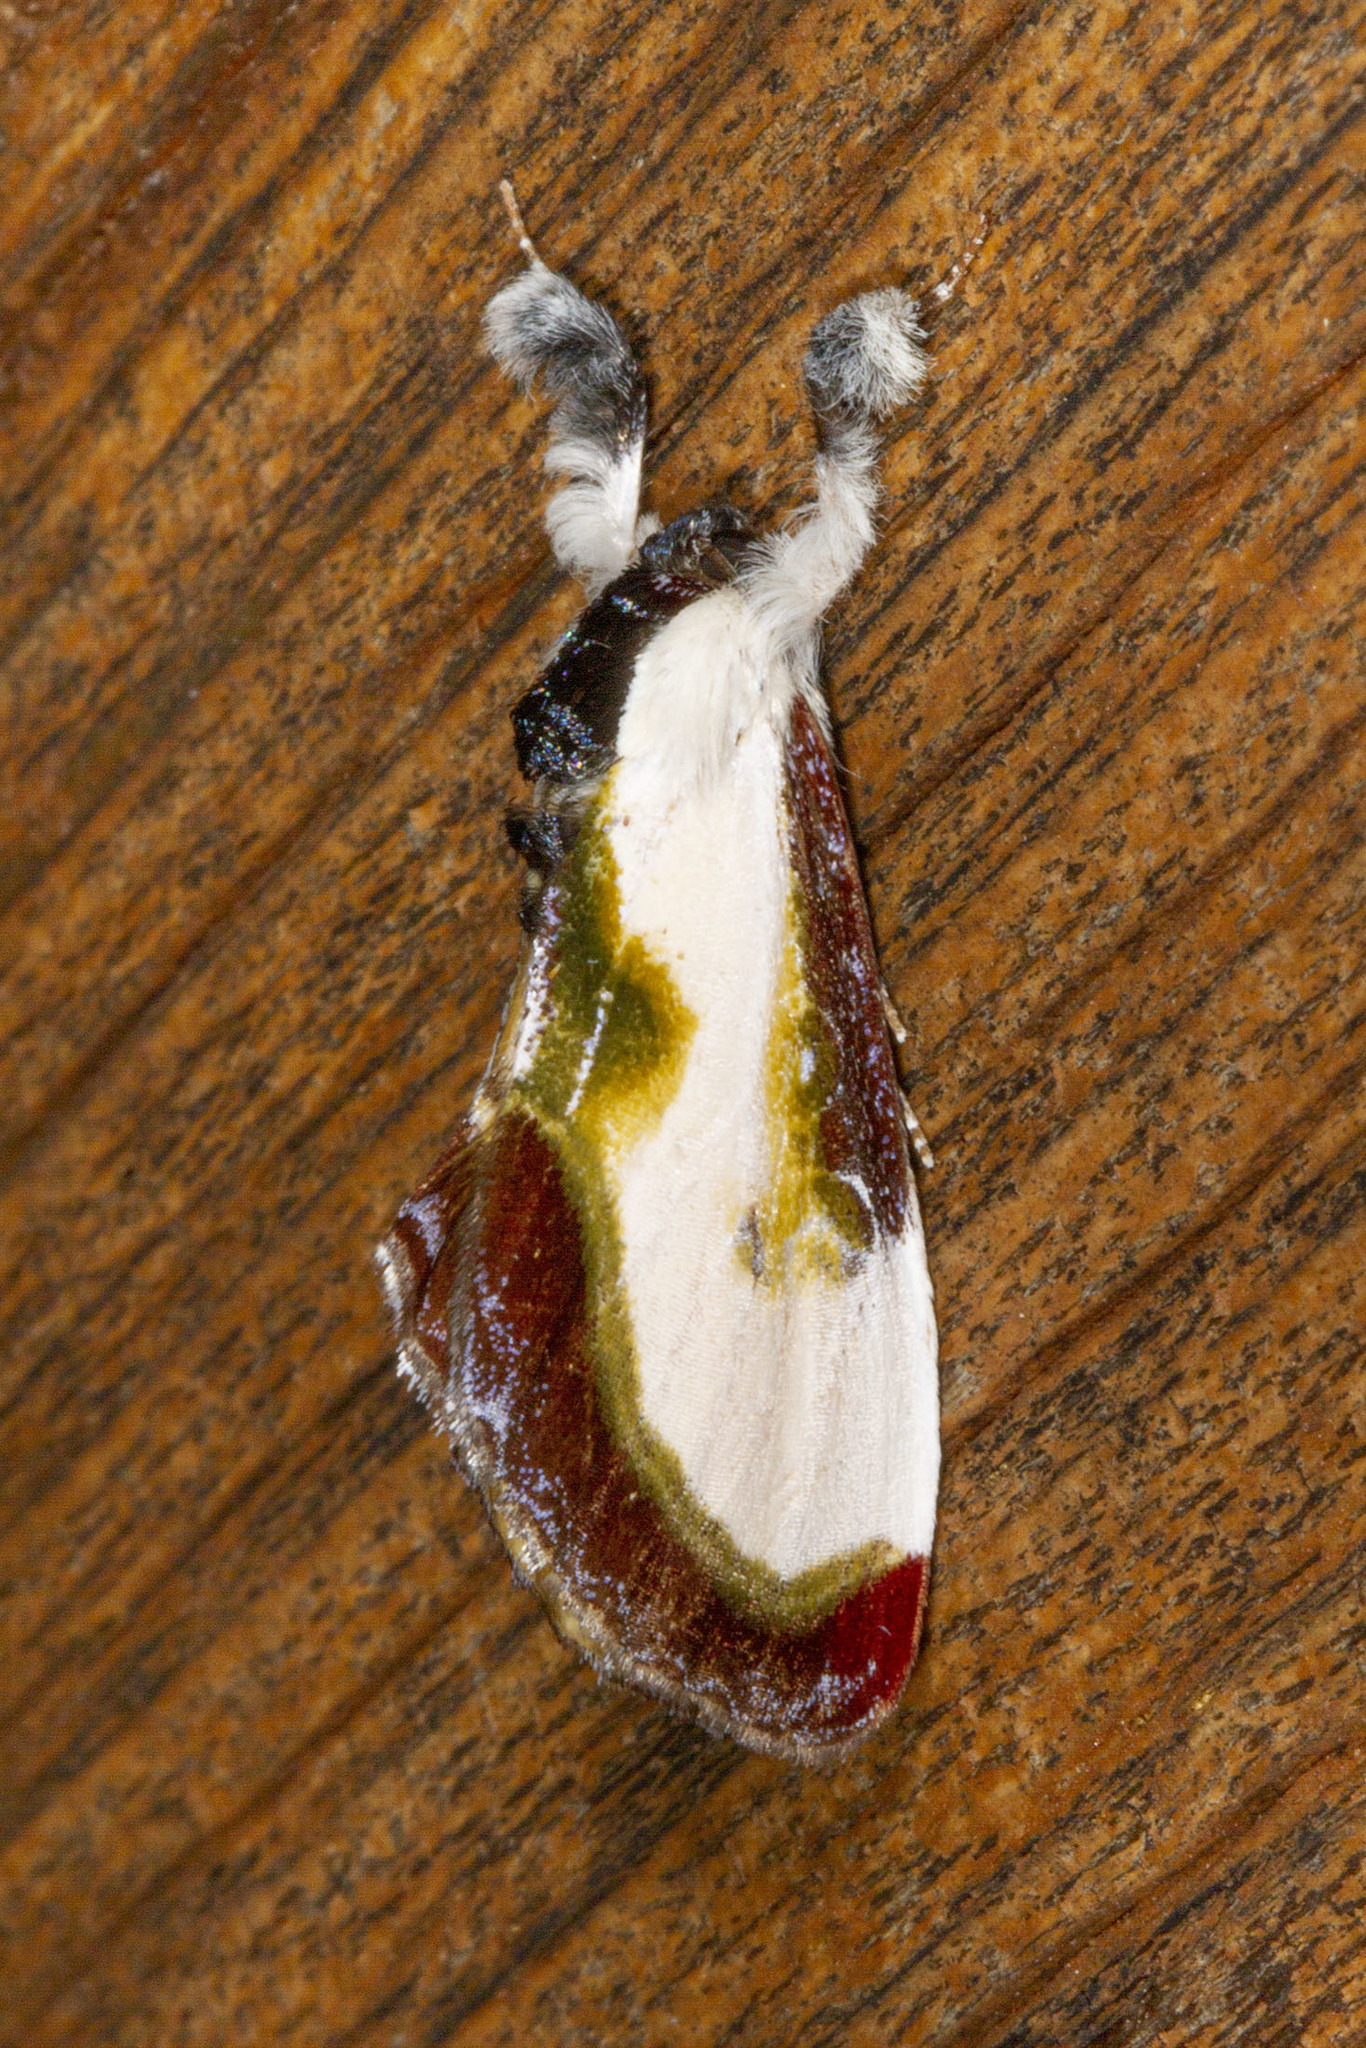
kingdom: Animalia
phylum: Arthropoda
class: Insecta
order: Lepidoptera
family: Noctuidae
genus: Eudryas
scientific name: Eudryas grata
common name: Beautiful wood-nymph
